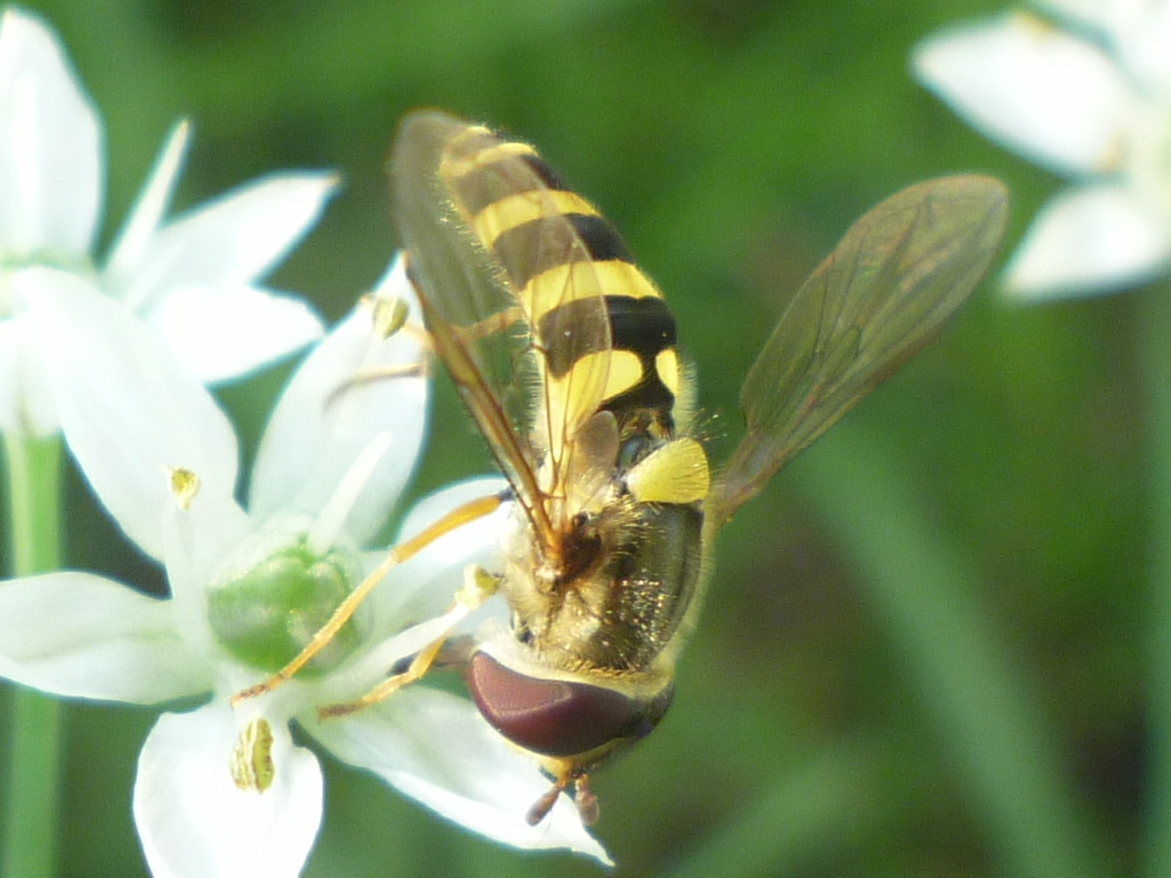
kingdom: Animalia
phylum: Arthropoda
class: Insecta
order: Diptera
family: Syrphidae
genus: Syrphus
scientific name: Syrphus
